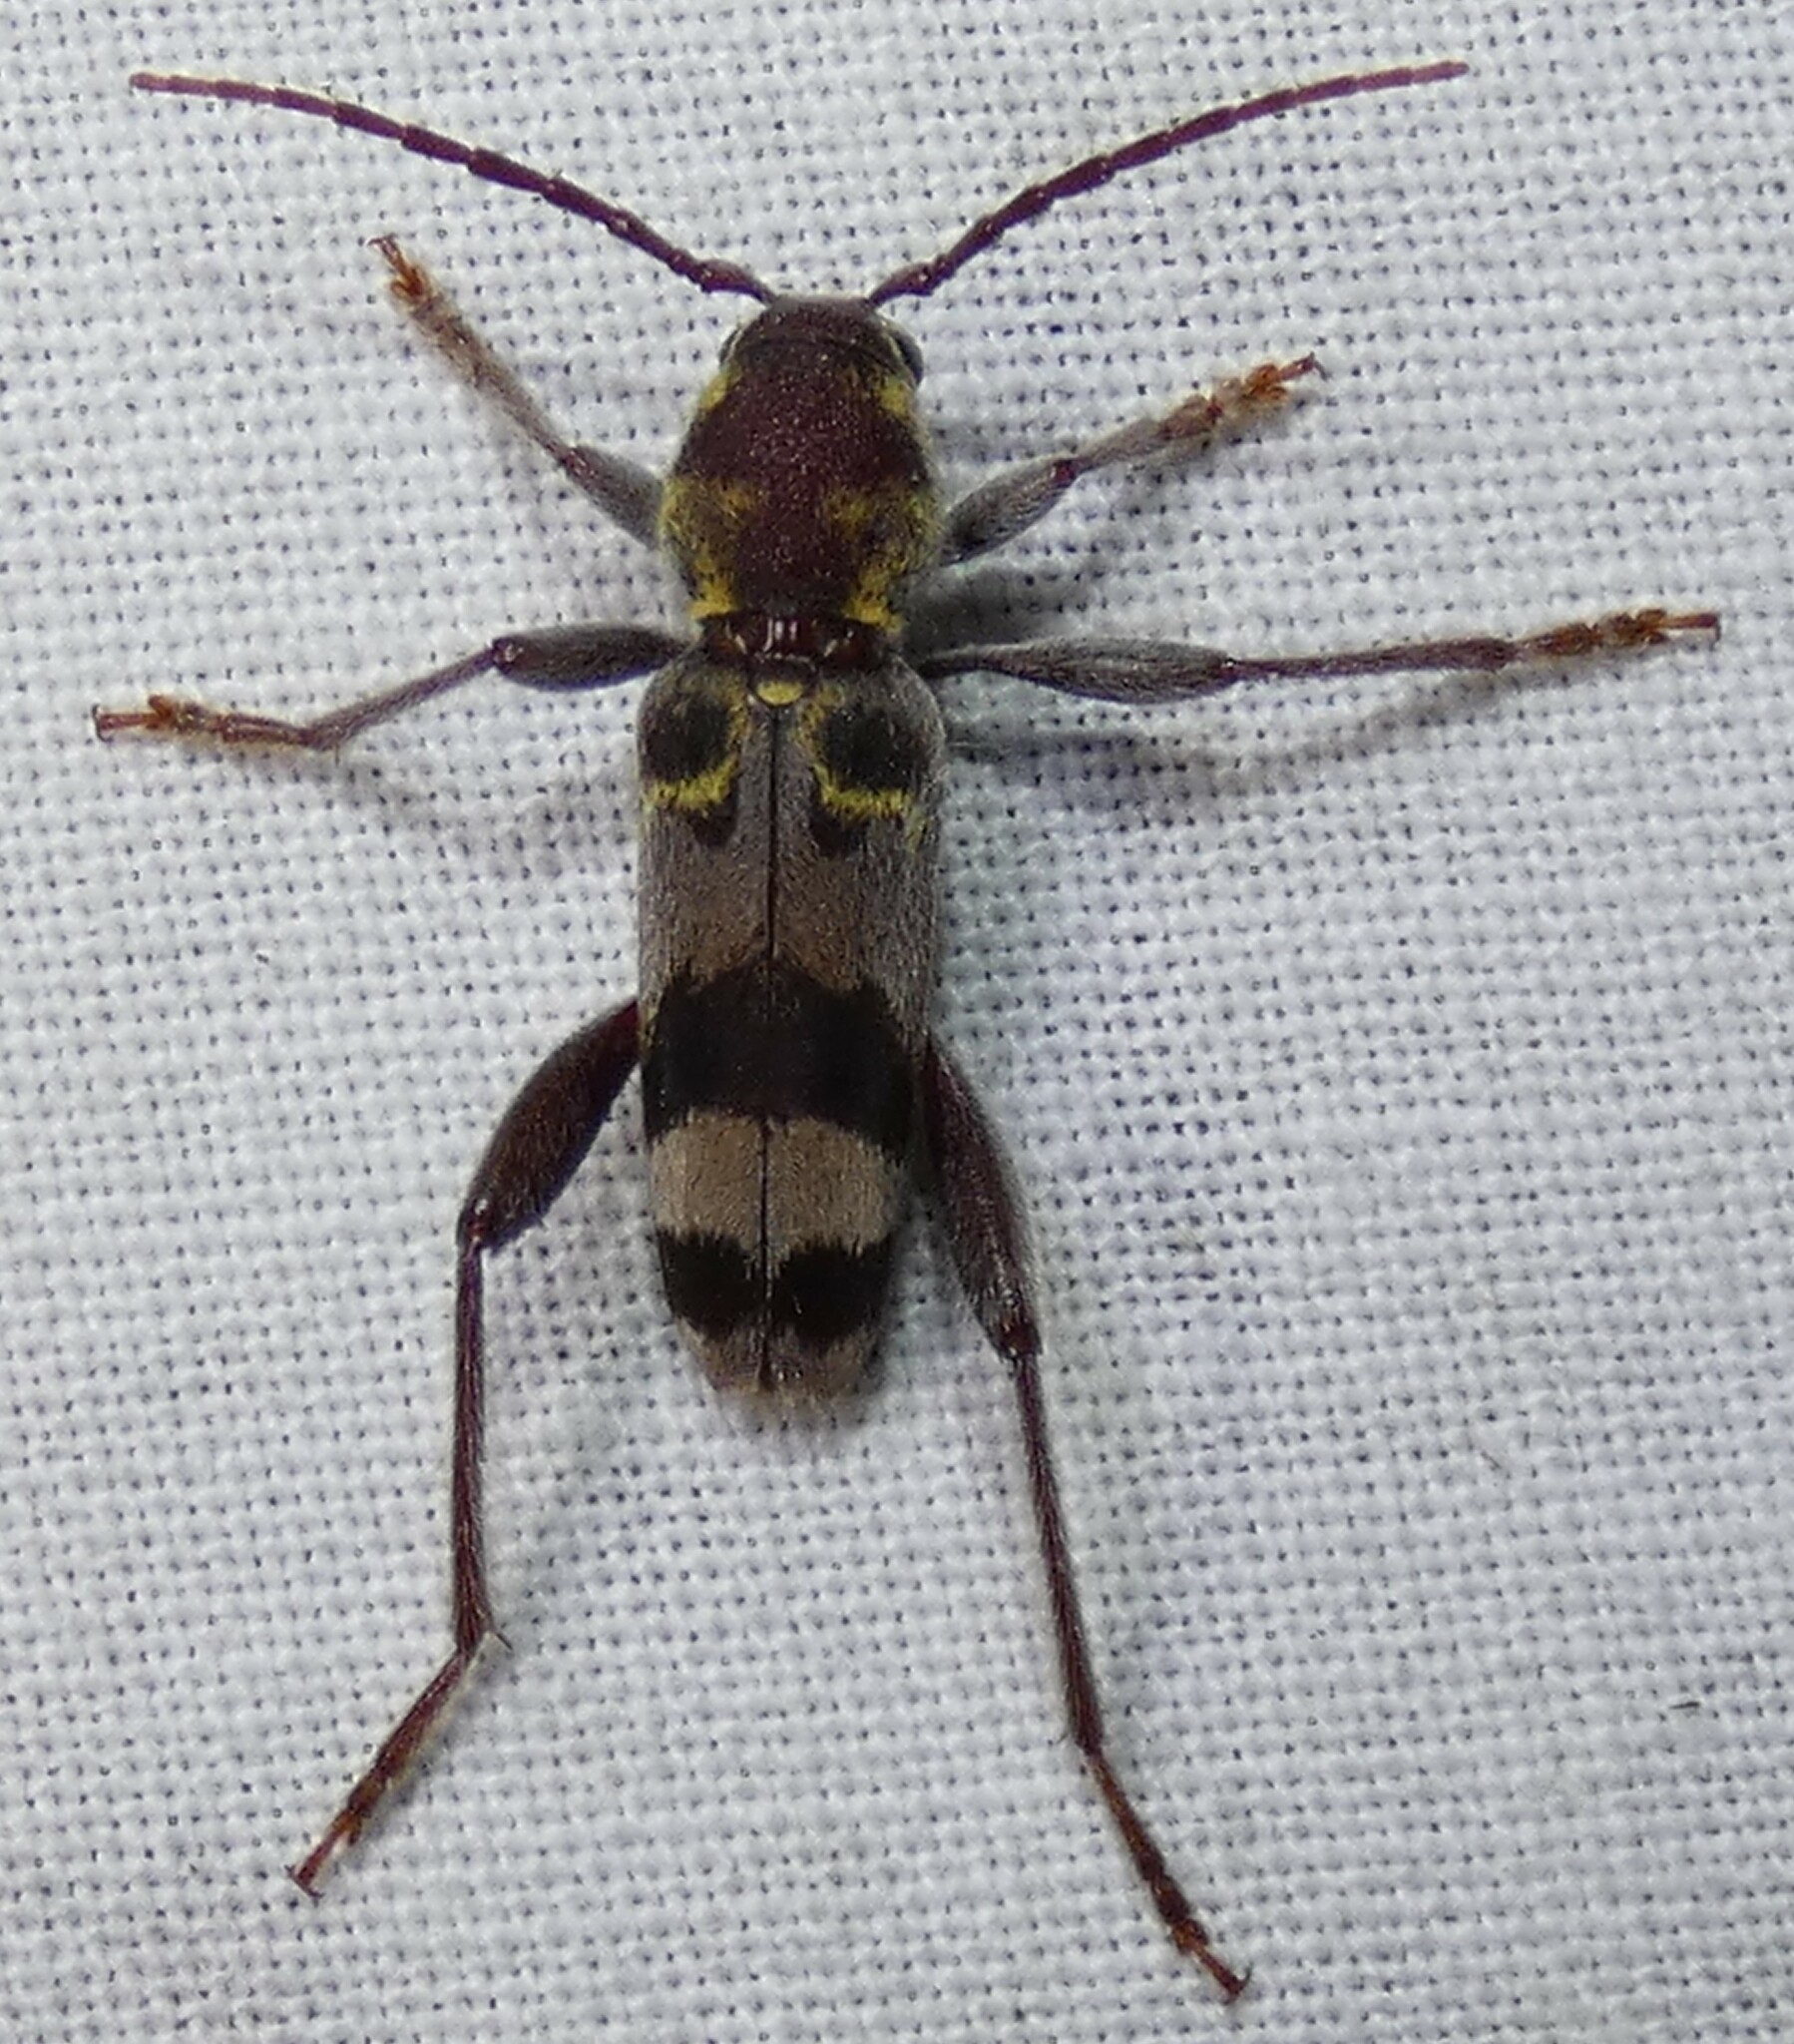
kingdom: Animalia
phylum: Arthropoda
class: Insecta
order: Coleoptera
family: Cerambycidae
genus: Xylotrechus
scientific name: Xylotrechus colonus
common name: Long-horned beetle
